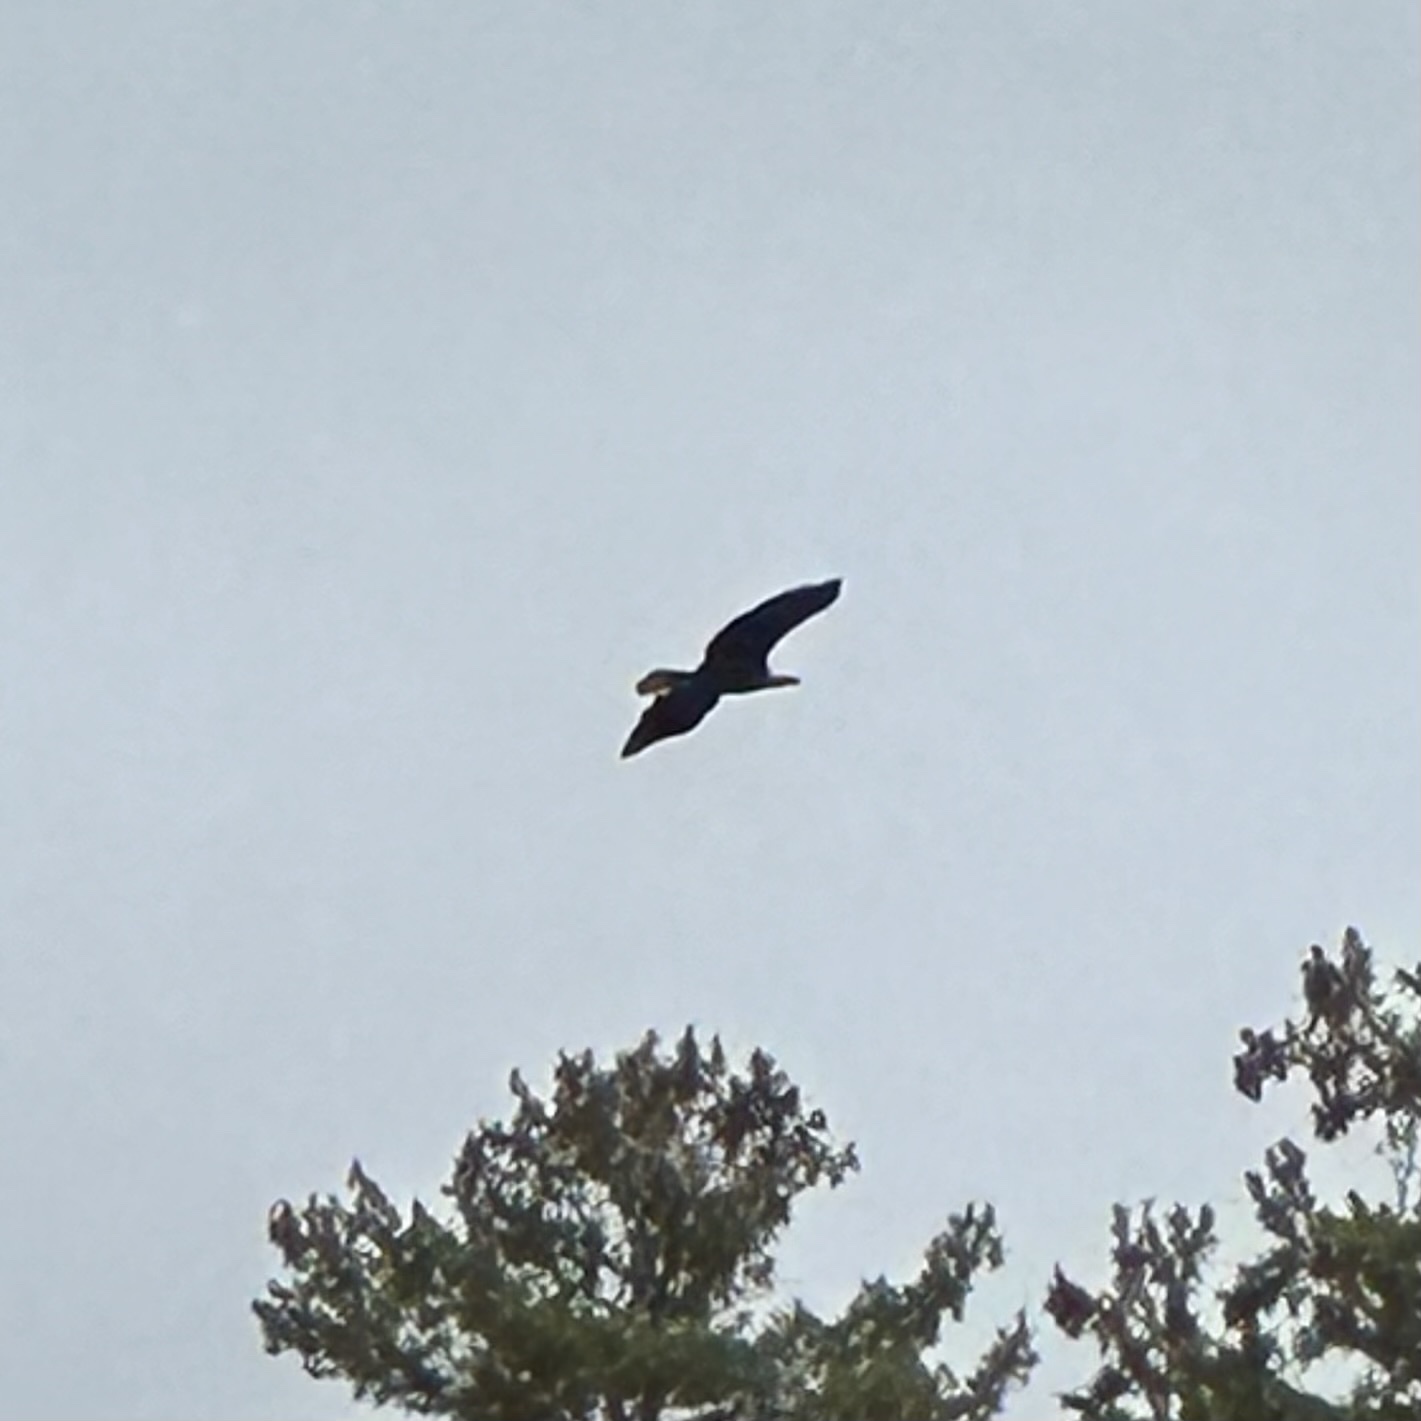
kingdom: Animalia
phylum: Chordata
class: Aves
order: Accipitriformes
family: Accipitridae
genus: Haliaeetus
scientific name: Haliaeetus leucocephalus
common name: Bald eagle
